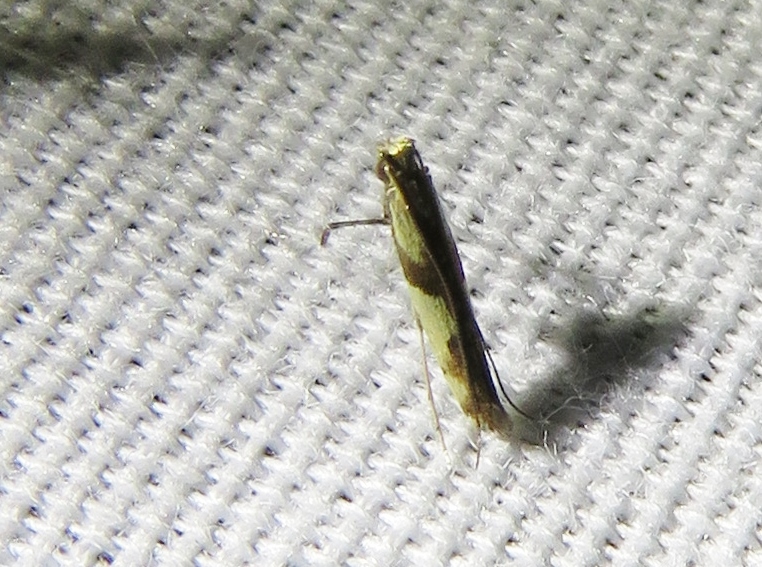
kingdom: Animalia
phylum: Arthropoda
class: Insecta
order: Lepidoptera
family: Gracillariidae
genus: Caloptilia
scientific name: Caloptilia blandella
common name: Walnut caloptilia moth
